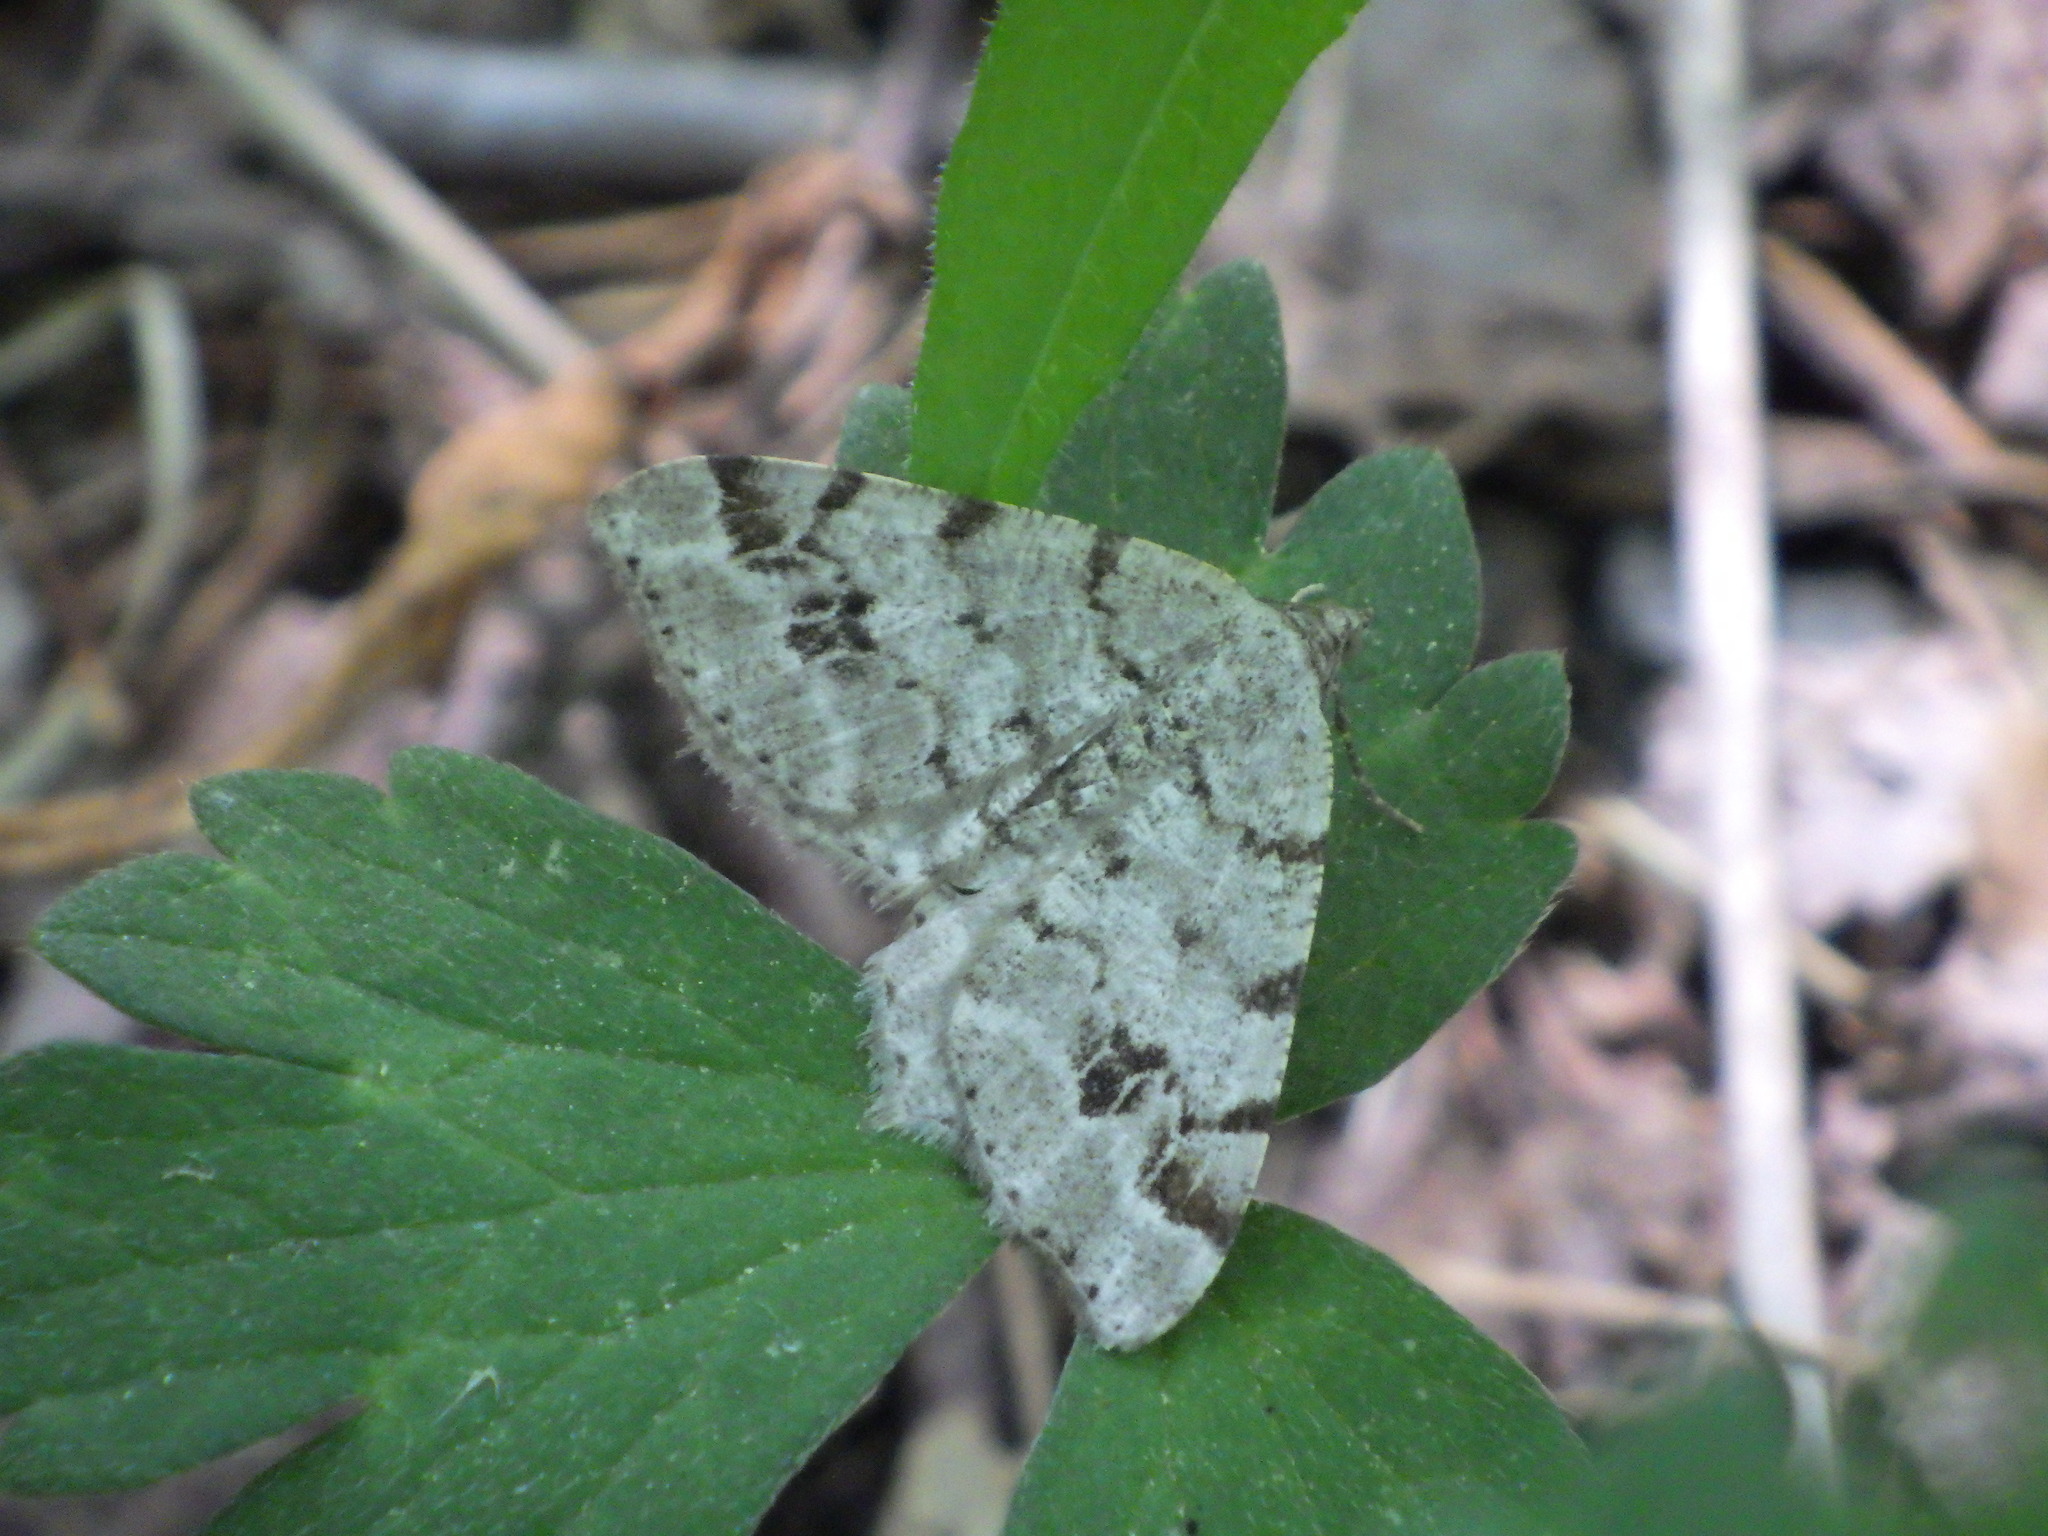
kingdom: Animalia
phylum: Arthropoda
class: Insecta
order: Lepidoptera
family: Geometridae
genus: Macaria
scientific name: Macaria pinistrobata
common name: White pine angle
